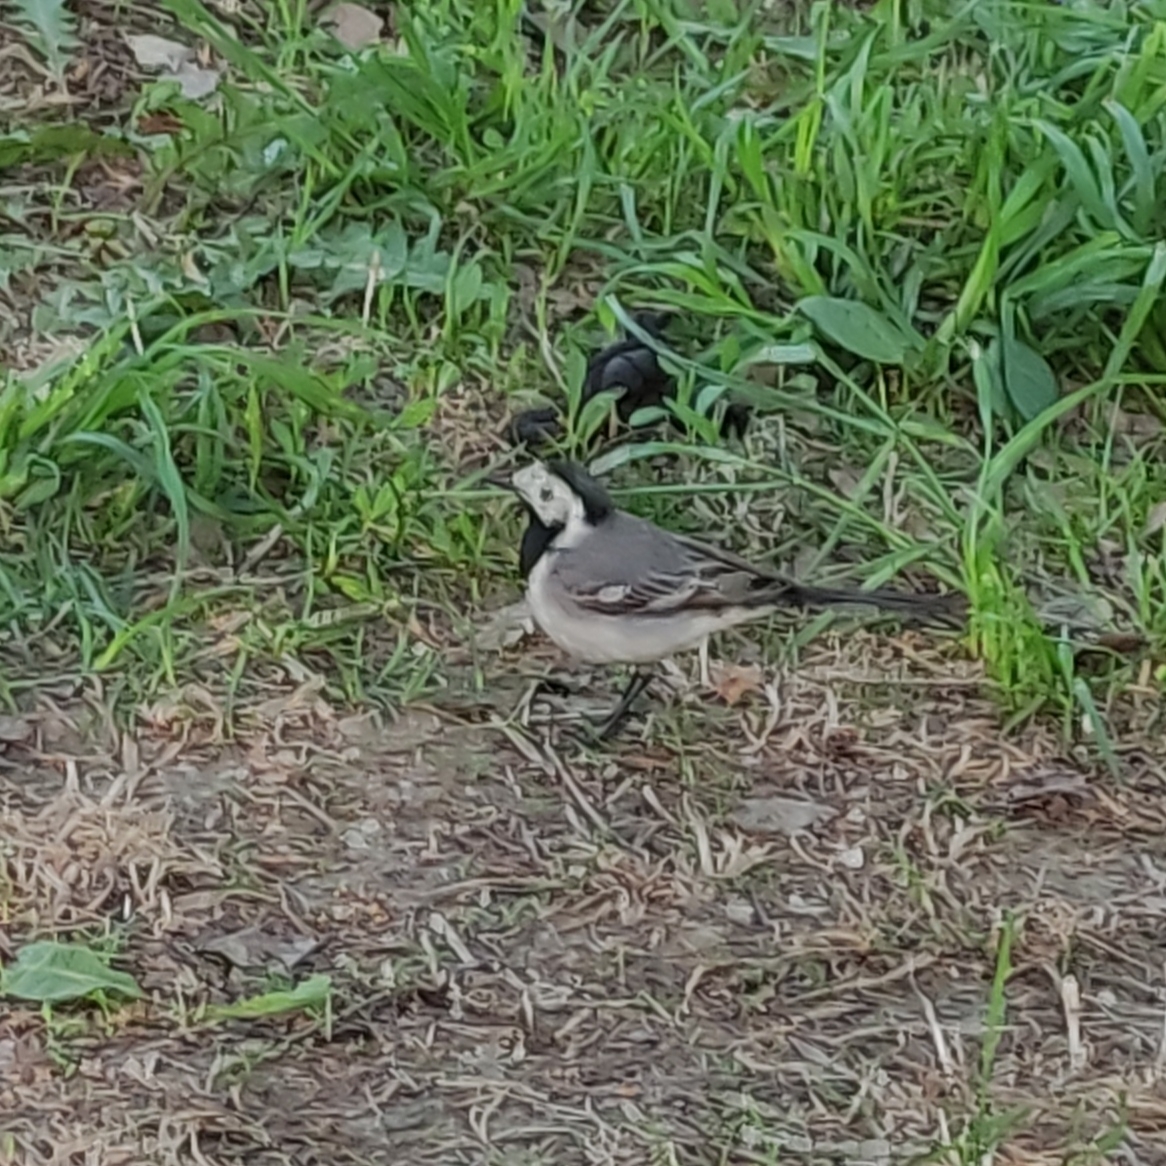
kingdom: Animalia
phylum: Chordata
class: Aves
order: Passeriformes
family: Motacillidae
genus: Motacilla
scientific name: Motacilla alba
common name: White wagtail
